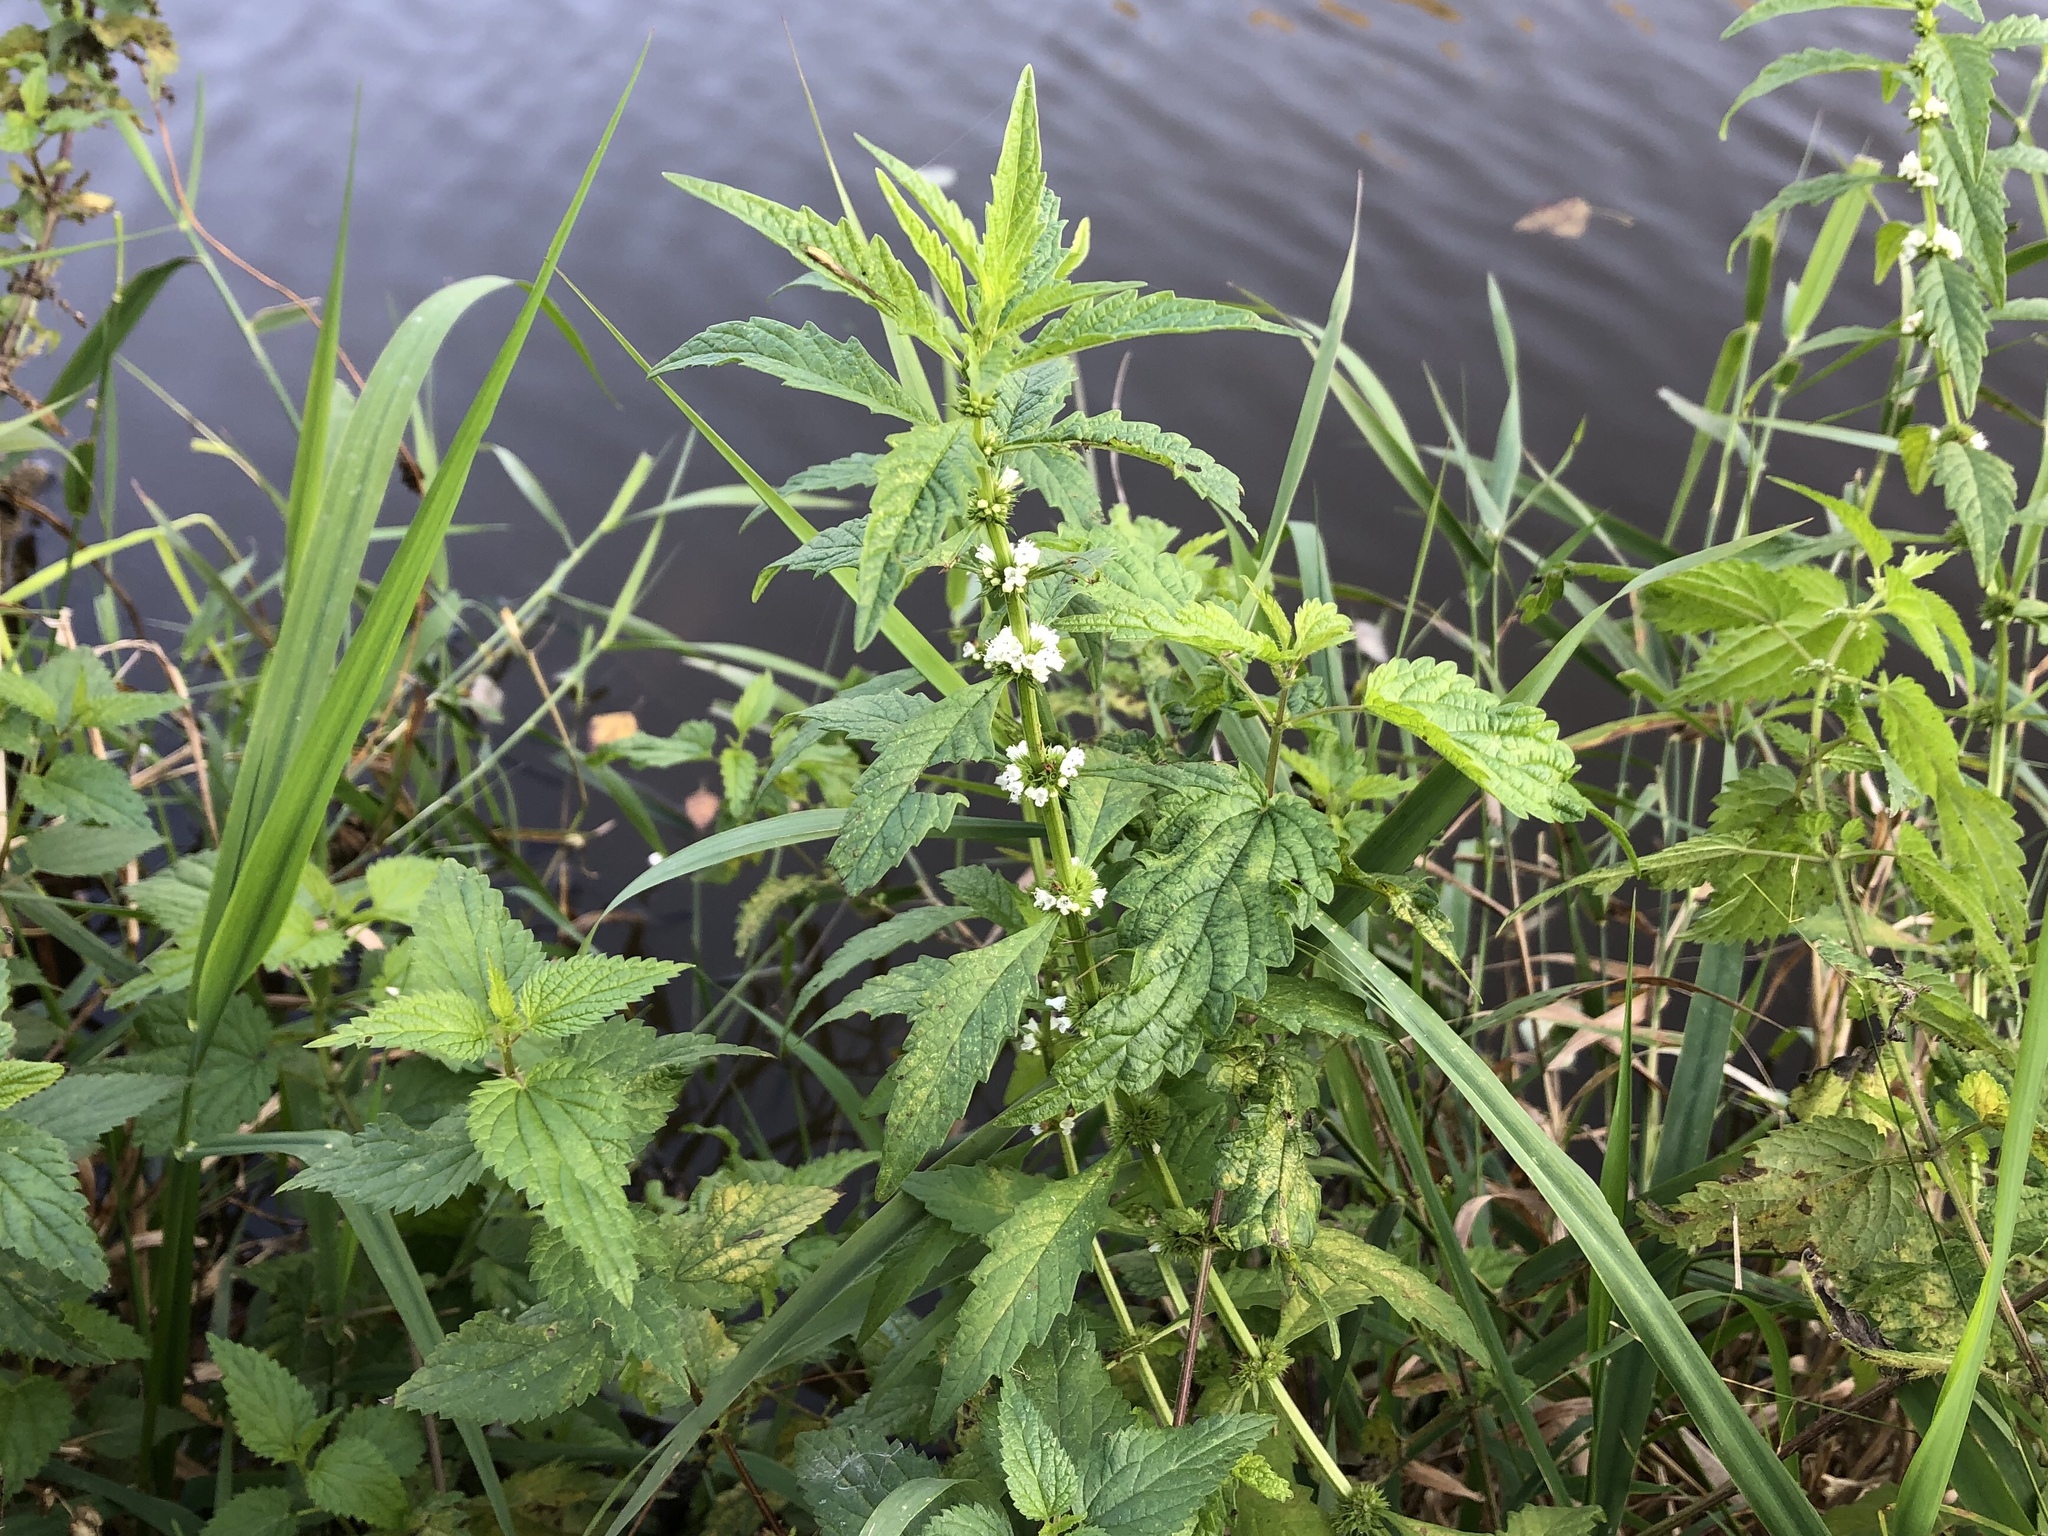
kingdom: Plantae
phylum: Tracheophyta
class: Magnoliopsida
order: Lamiales
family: Lamiaceae
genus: Lycopus
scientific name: Lycopus europaeus
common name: European bugleweed
